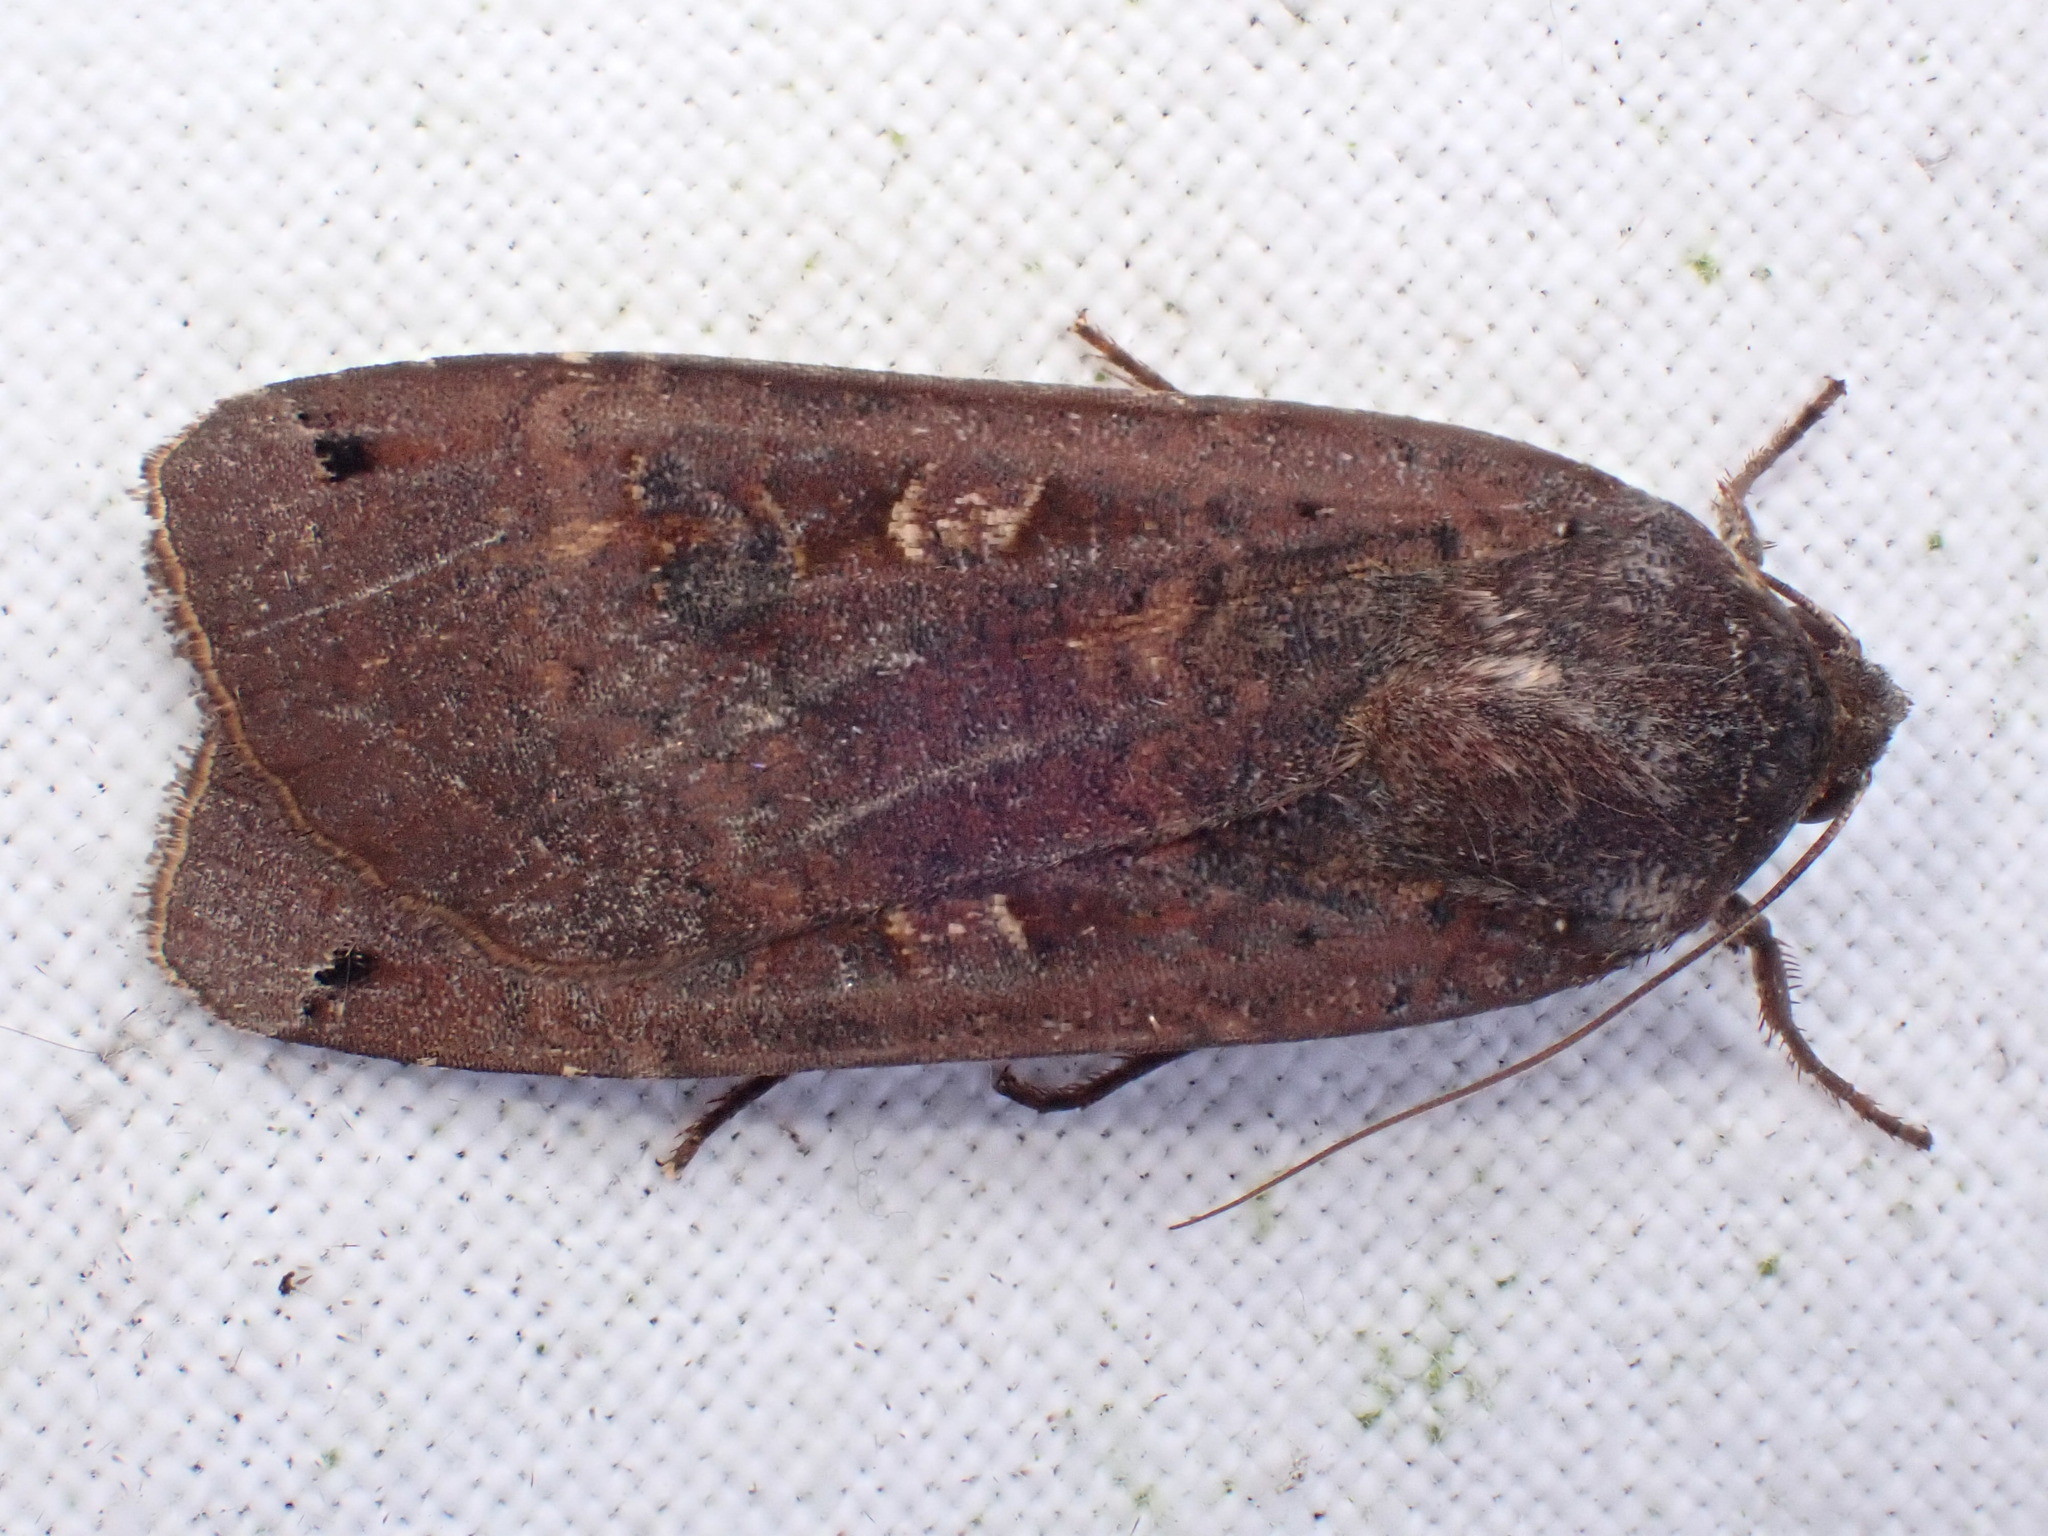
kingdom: Animalia
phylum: Arthropoda
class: Insecta
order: Lepidoptera
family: Noctuidae
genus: Noctua
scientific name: Noctua pronuba
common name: Large yellow underwing
